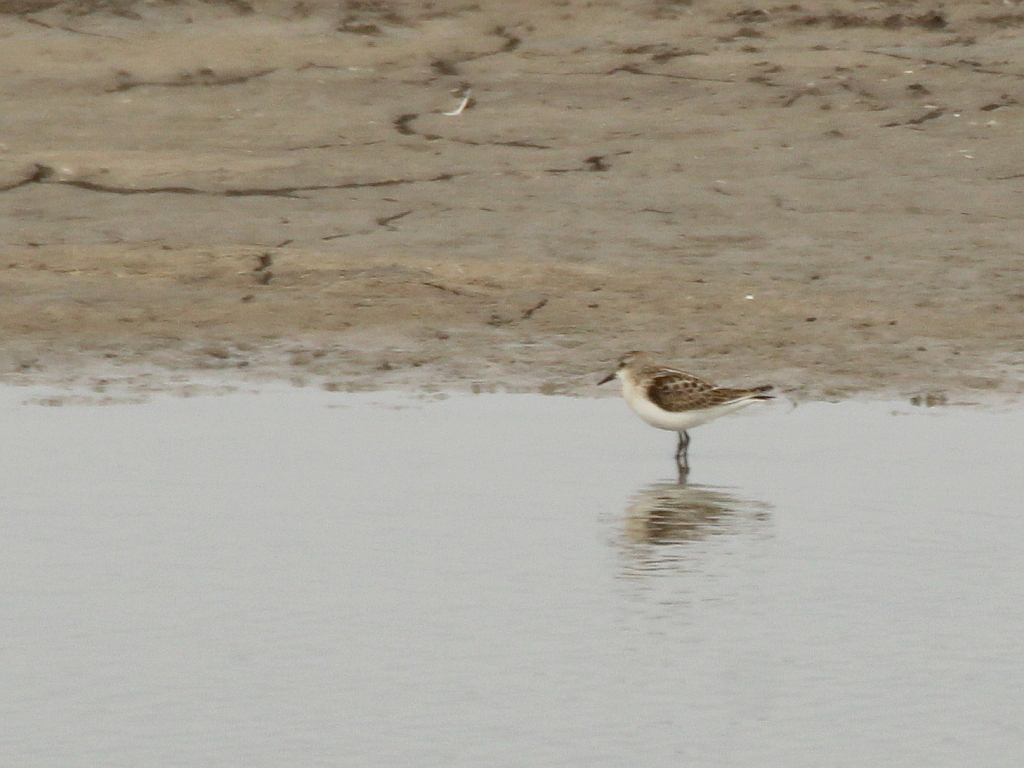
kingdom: Animalia
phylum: Chordata
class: Aves
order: Charadriiformes
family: Scolopacidae
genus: Calidris
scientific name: Calidris minuta
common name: Little stint
